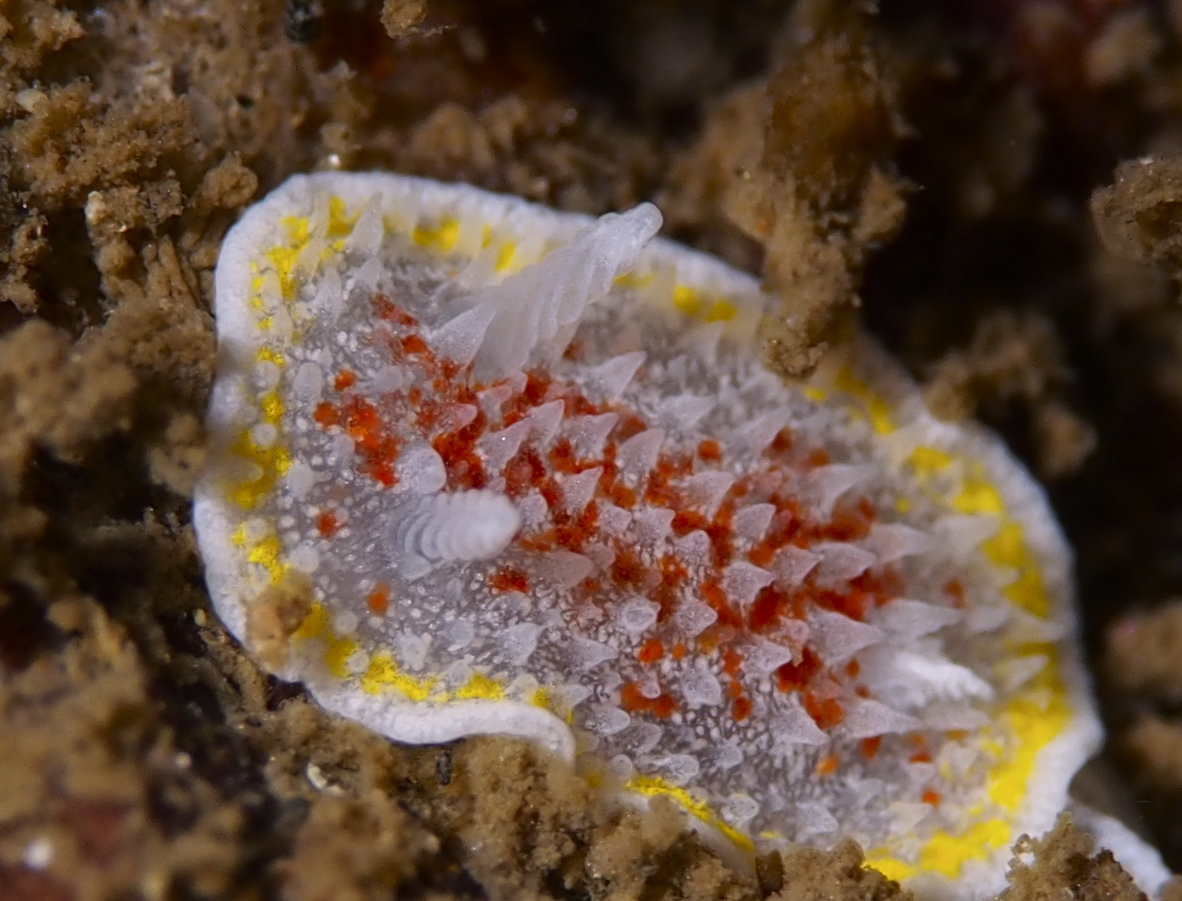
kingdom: Animalia
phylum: Mollusca
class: Gastropoda
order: Nudibranchia
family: Calycidorididae
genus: Diaphorodoris
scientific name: Diaphorodoris luteocincta
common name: Fried egg nudibranch
